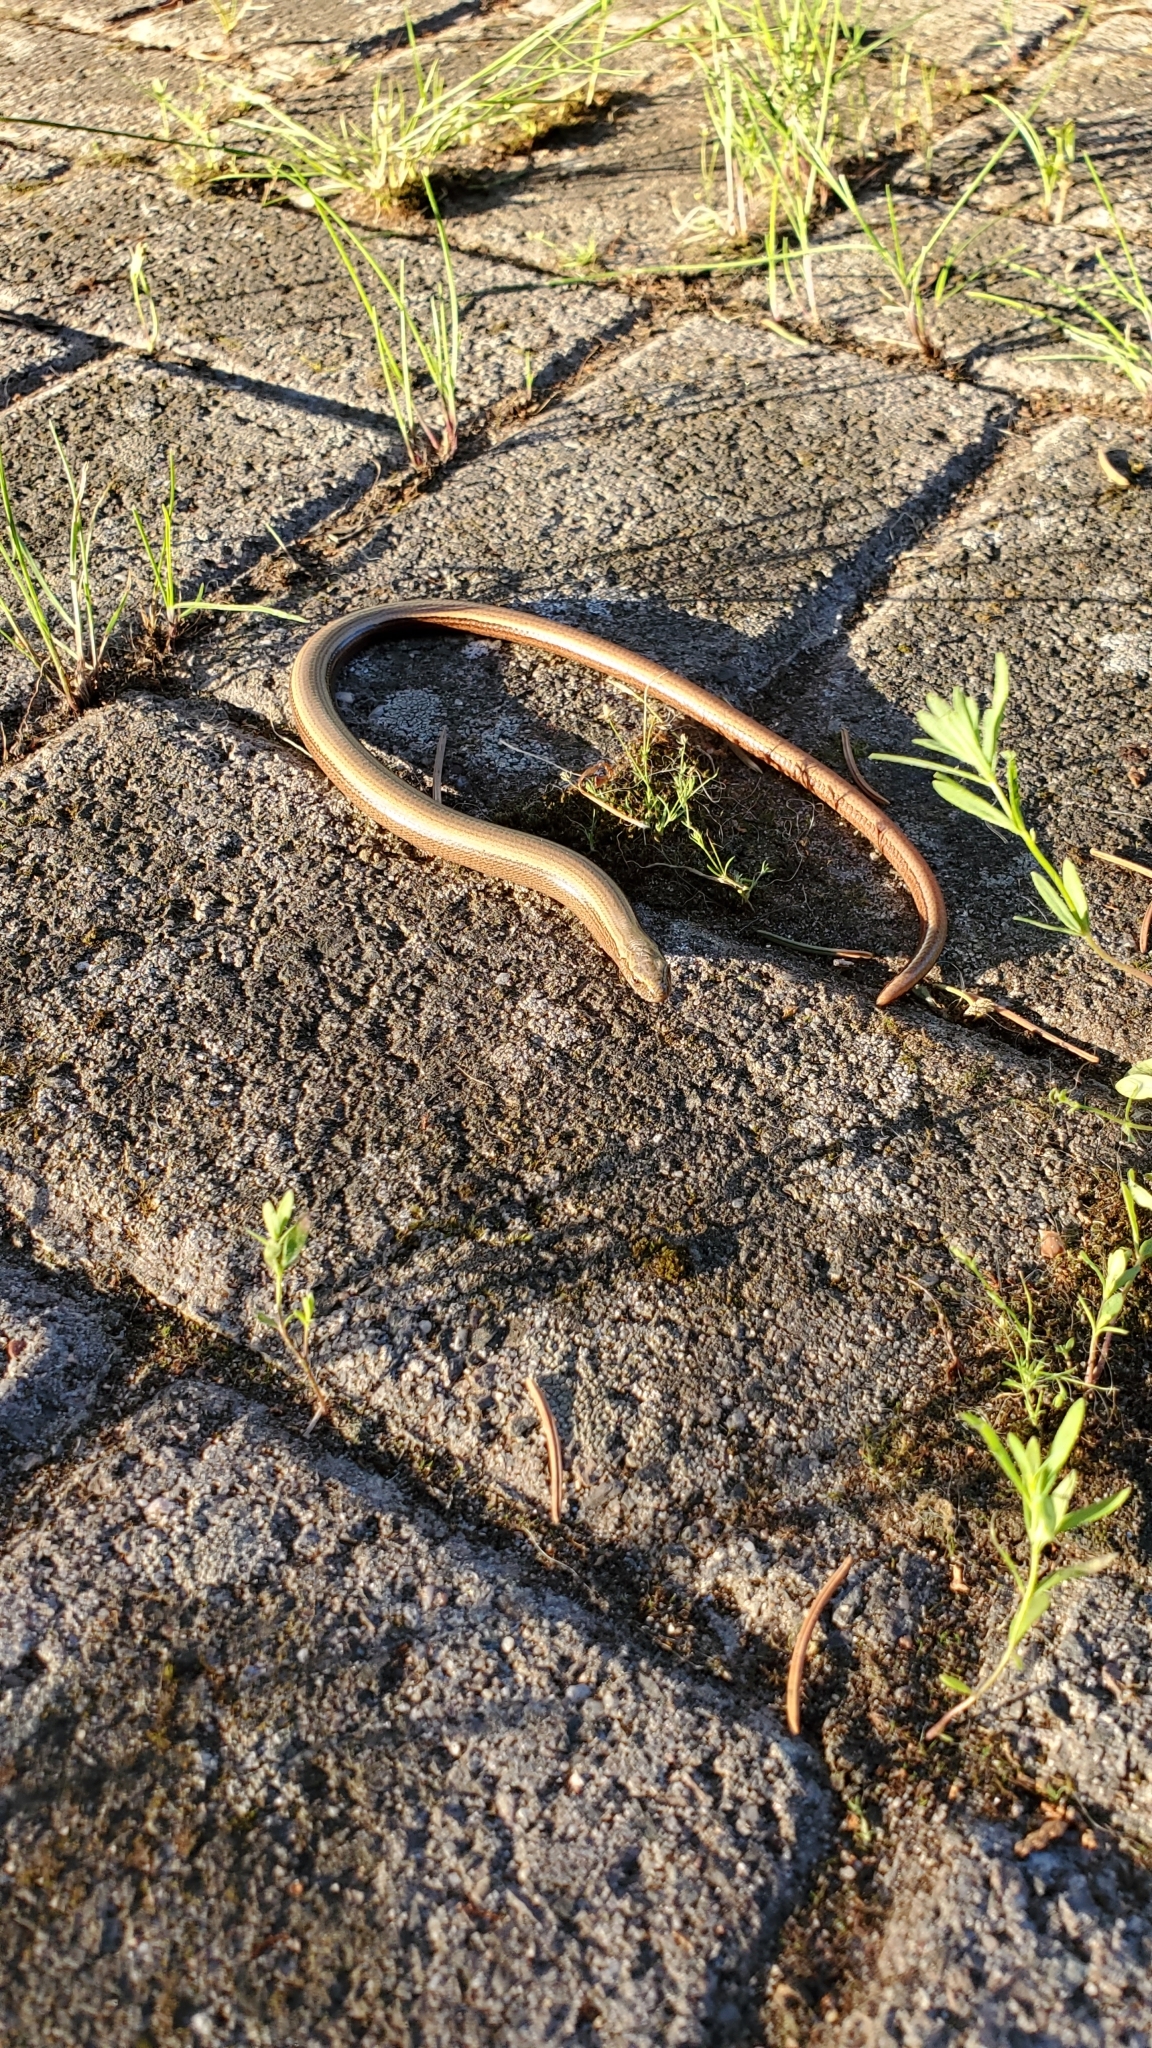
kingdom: Animalia
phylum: Chordata
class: Squamata
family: Anguidae
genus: Anguis
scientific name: Anguis fragilis
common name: Slow worm
